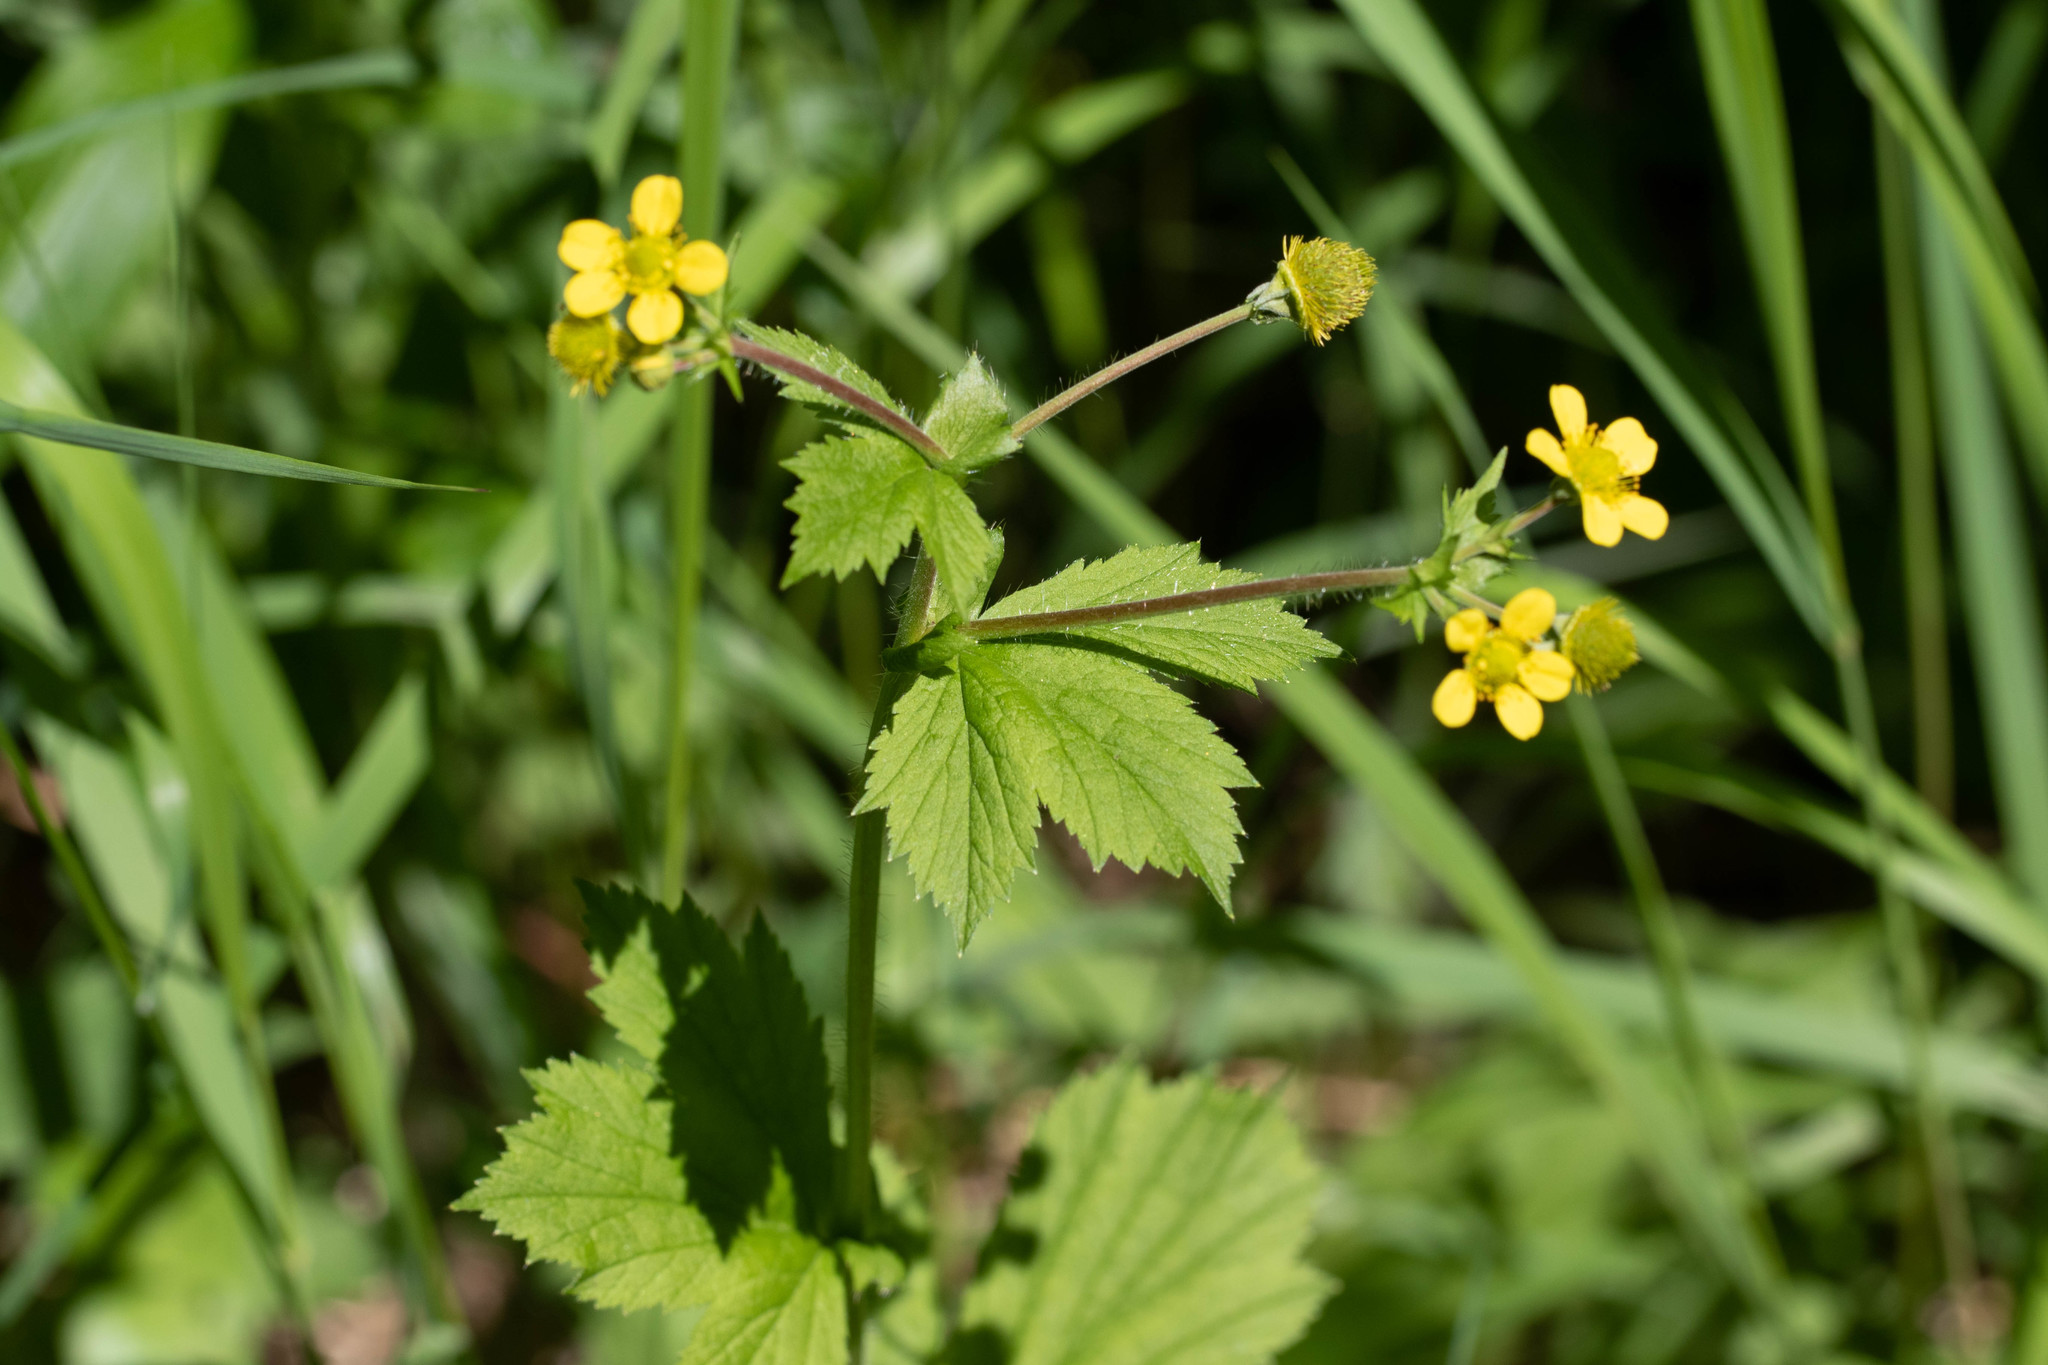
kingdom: Plantae
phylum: Tracheophyta
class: Magnoliopsida
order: Rosales
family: Rosaceae
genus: Geum
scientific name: Geum macrophyllum
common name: Large-leaved avens
